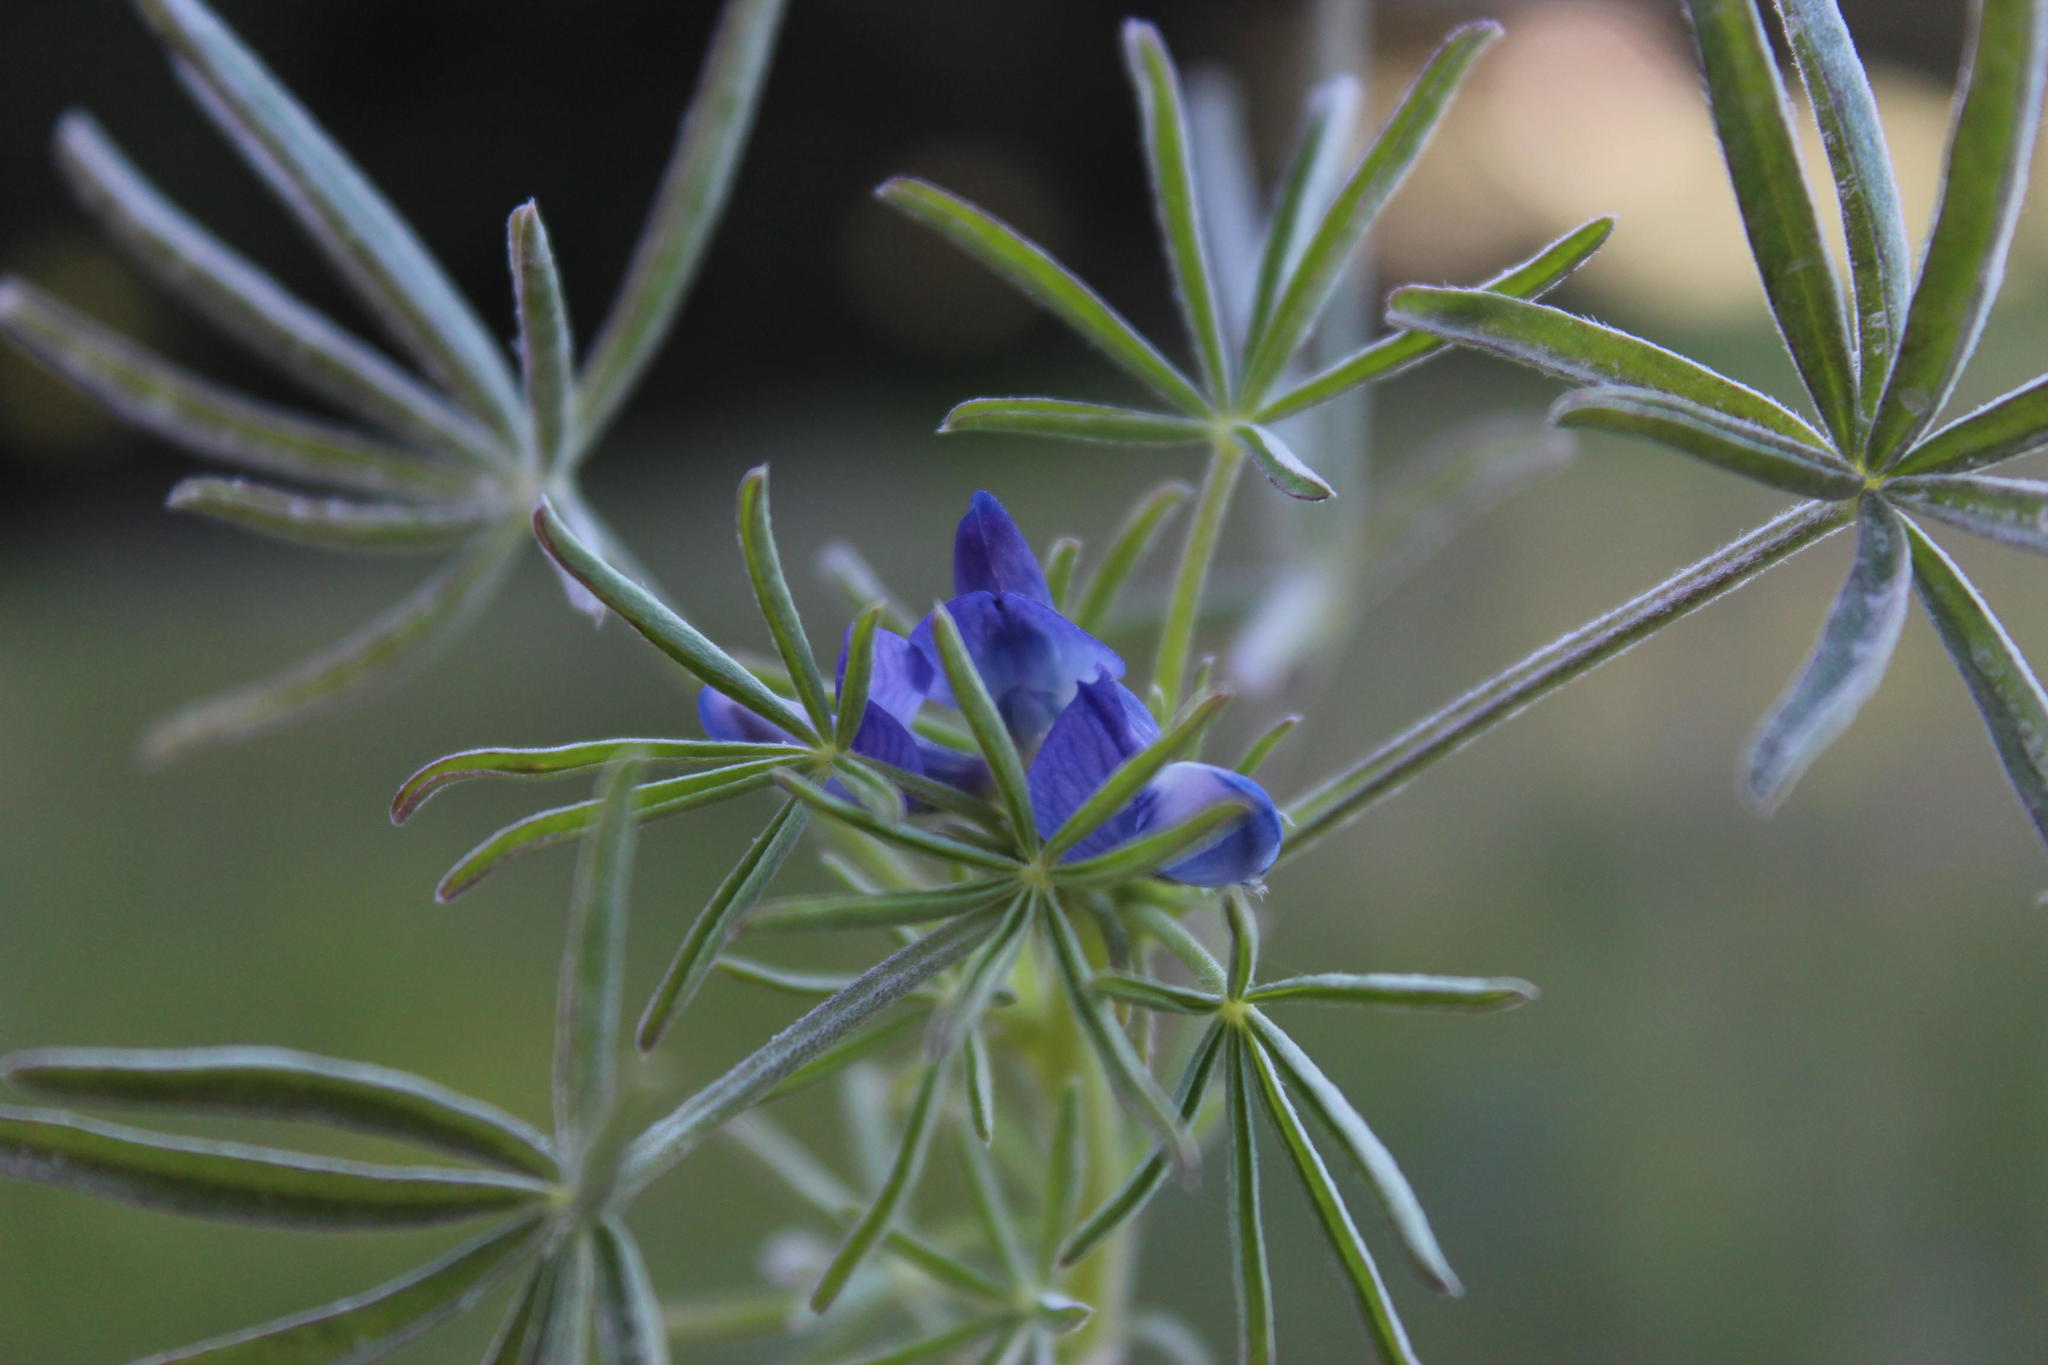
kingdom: Plantae
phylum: Tracheophyta
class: Magnoliopsida
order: Fabales
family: Fabaceae
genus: Lupinus
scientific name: Lupinus angustifolius
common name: Narrow-leaved lupin
